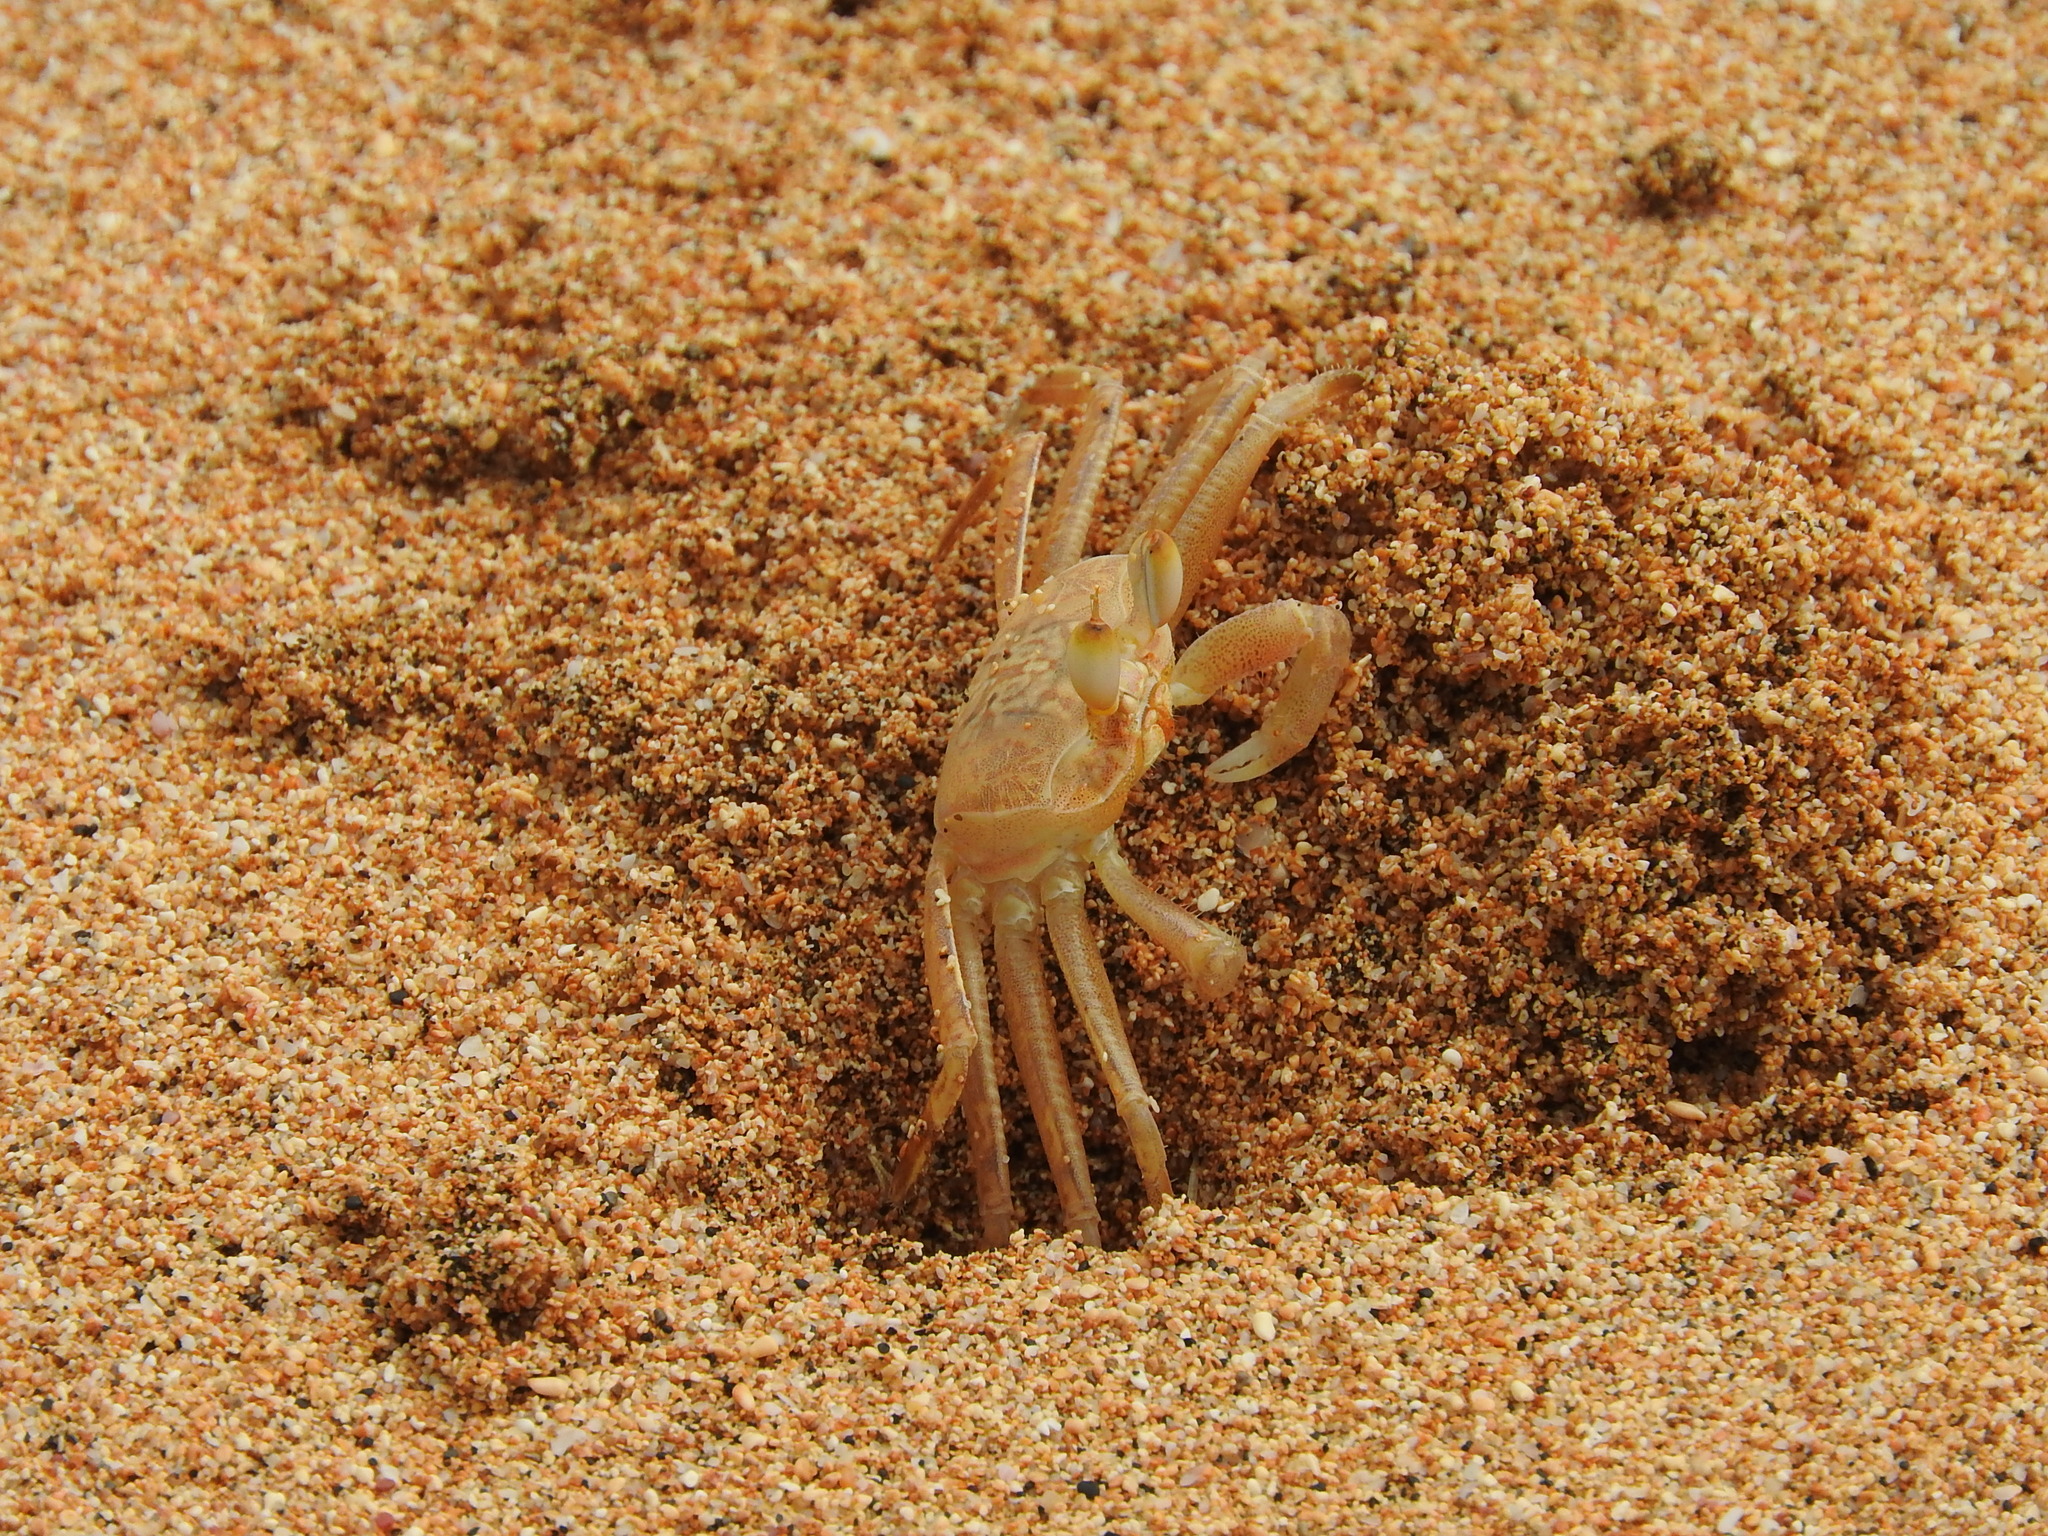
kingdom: Animalia
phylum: Arthropoda
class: Malacostraca
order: Decapoda
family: Ocypodidae
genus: Ocypode
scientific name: Ocypode africana
